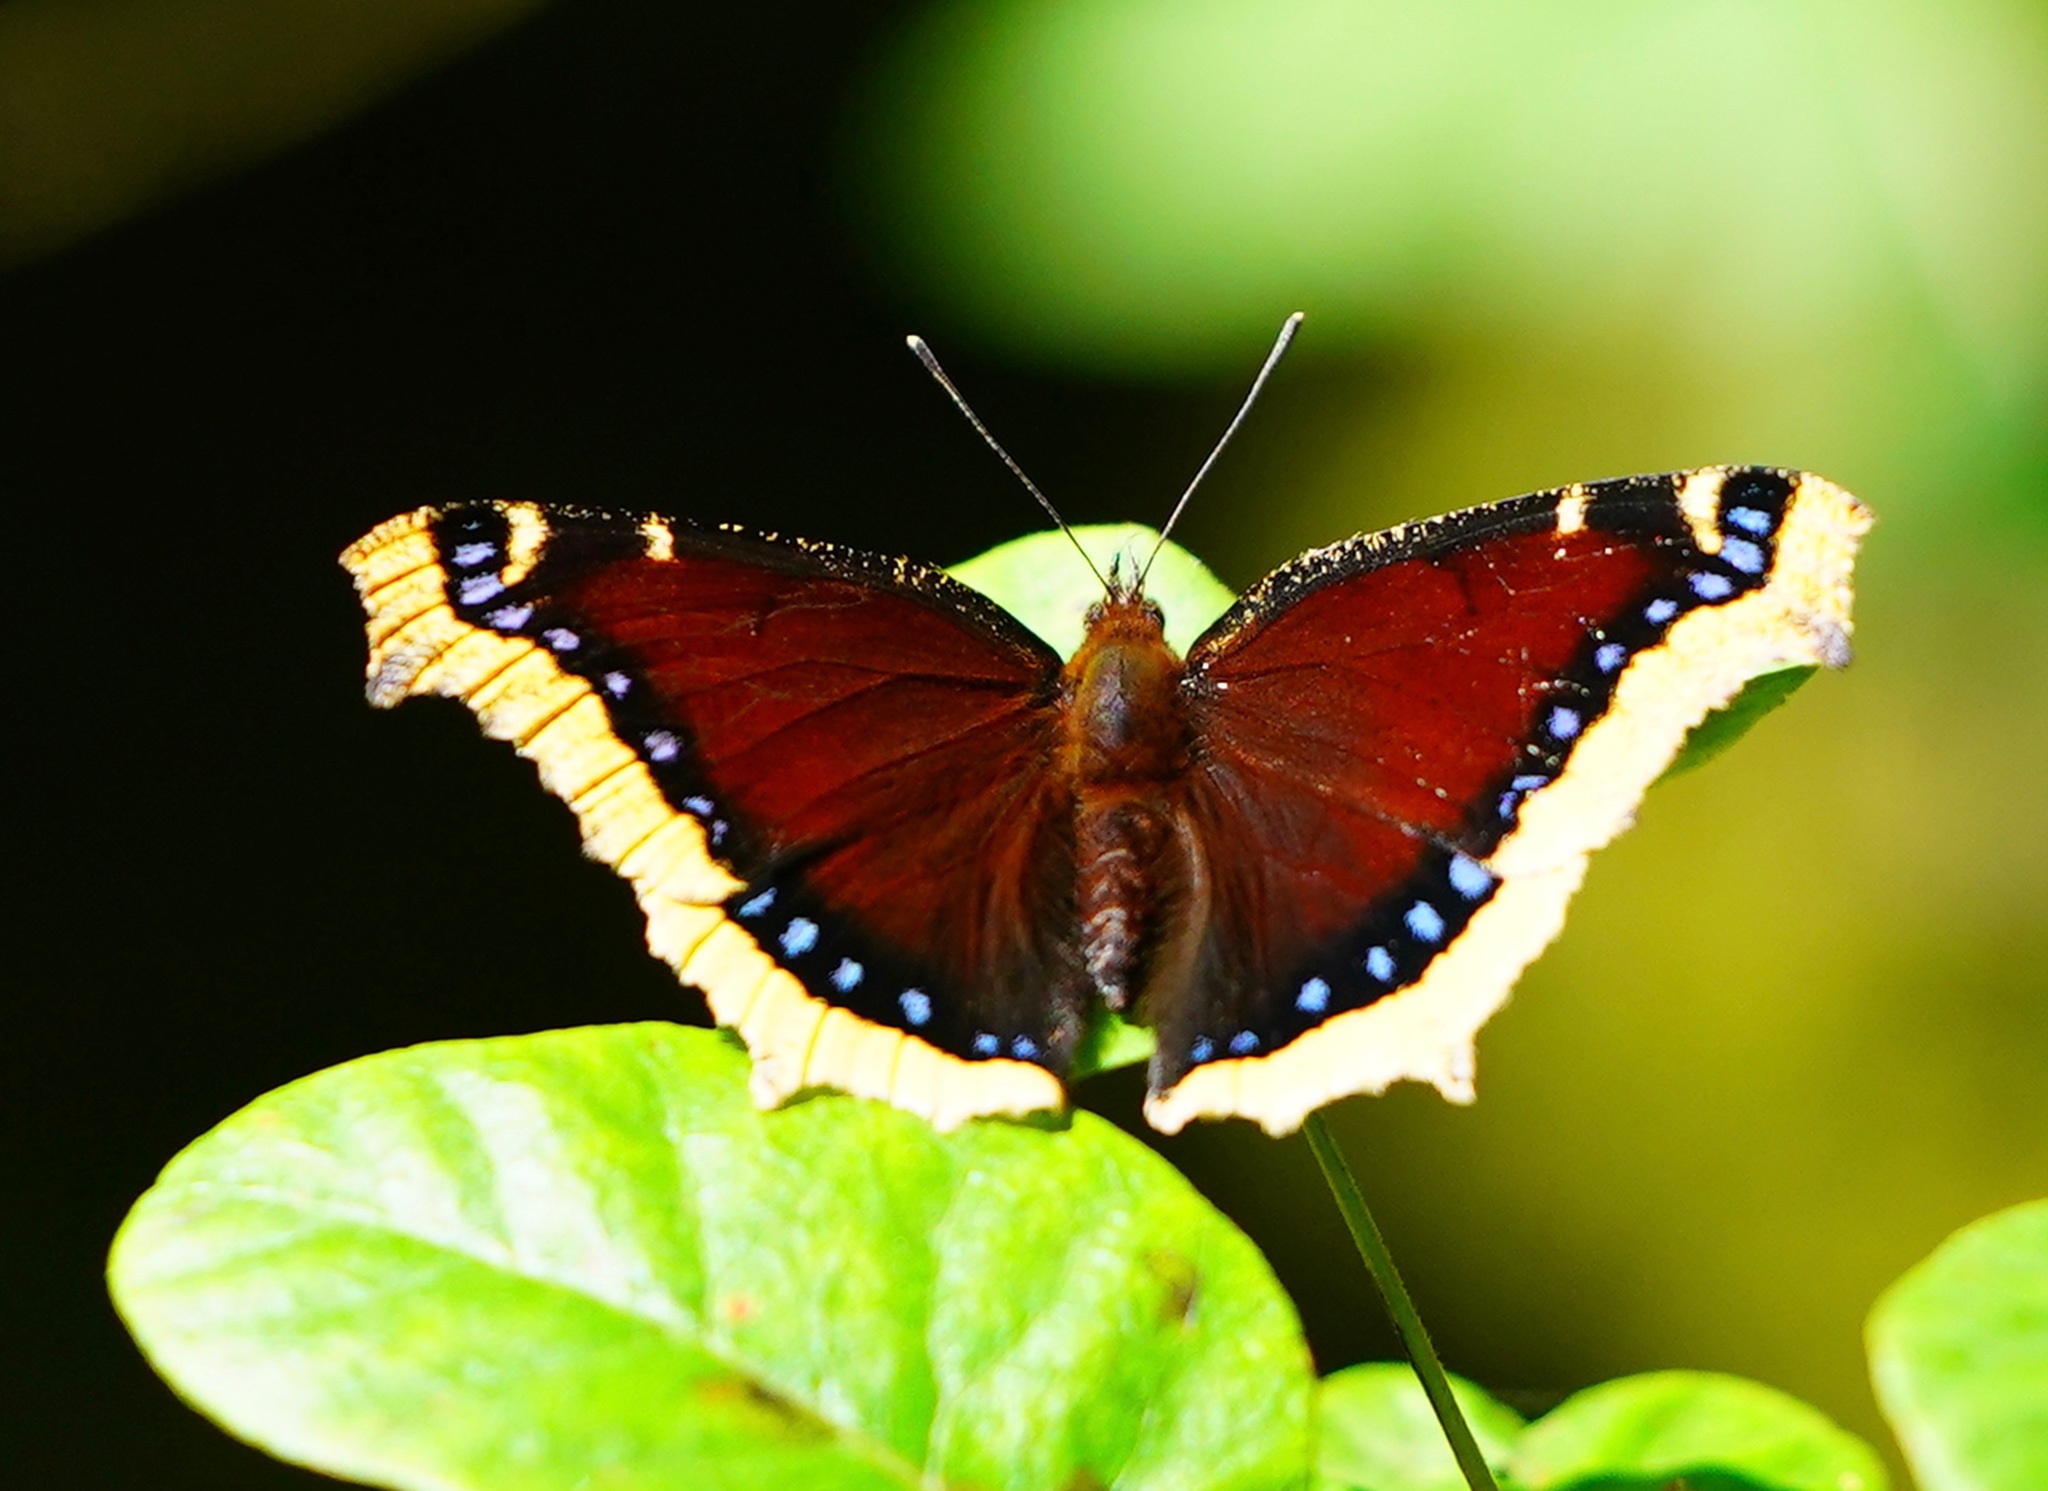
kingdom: Animalia
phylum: Arthropoda
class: Insecta
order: Lepidoptera
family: Nymphalidae
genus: Nymphalis
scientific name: Nymphalis antiopa
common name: Camberwell beauty
